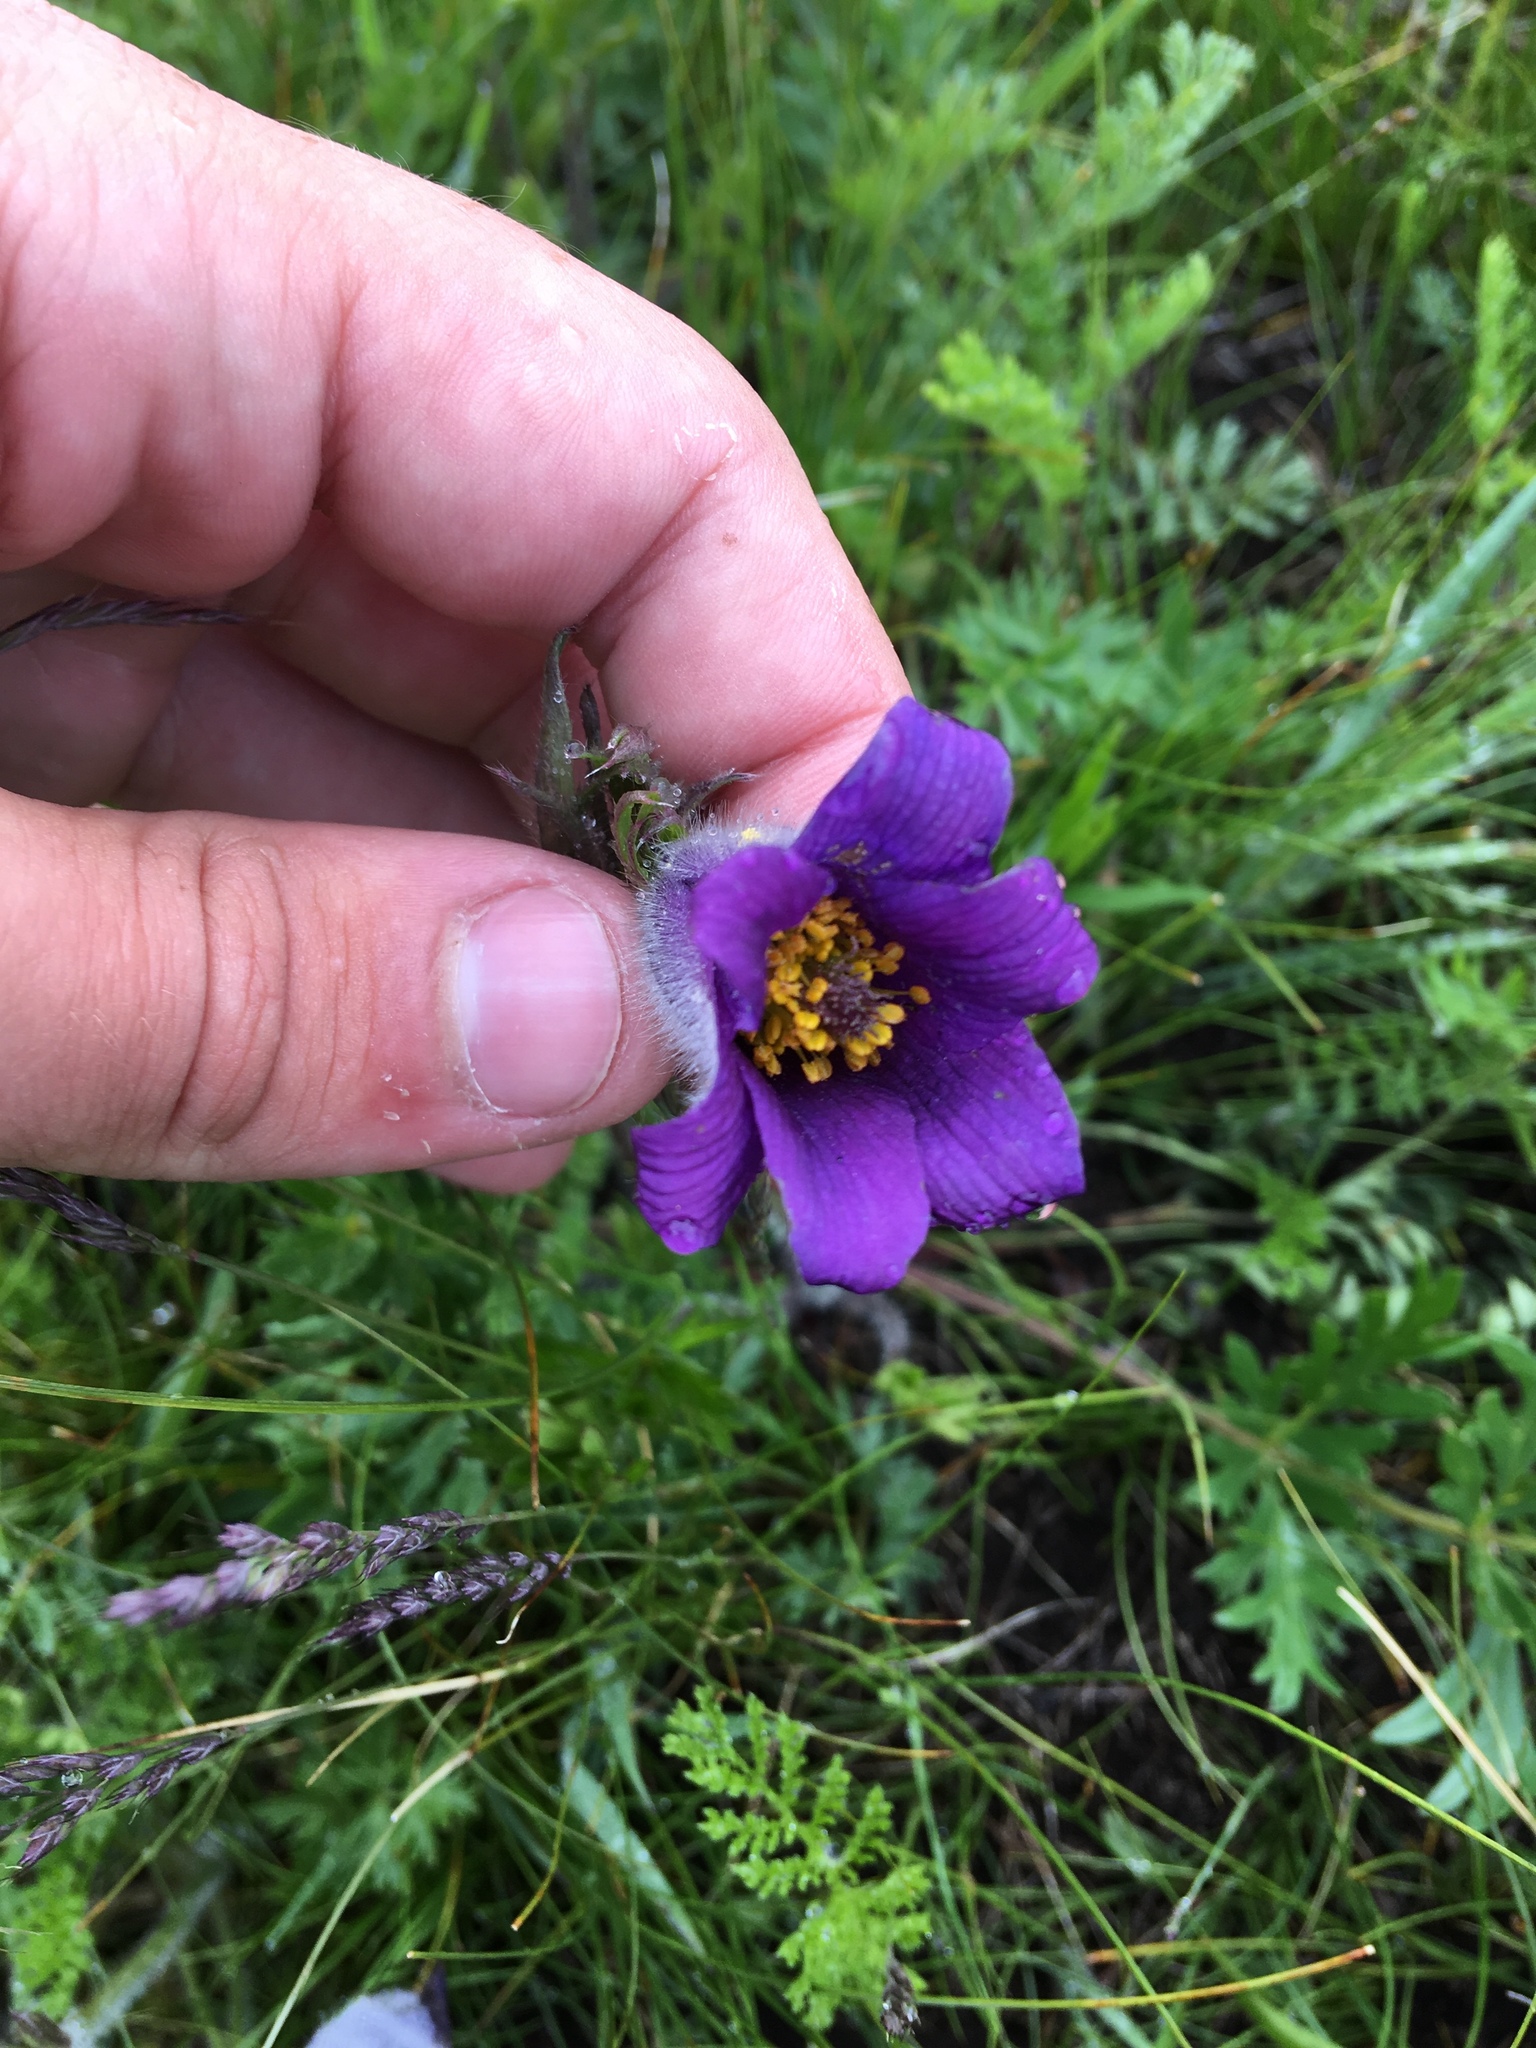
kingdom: Plantae
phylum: Tracheophyta
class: Magnoliopsida
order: Ranunculales
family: Ranunculaceae
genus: Pulsatilla
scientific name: Pulsatilla ambigua
